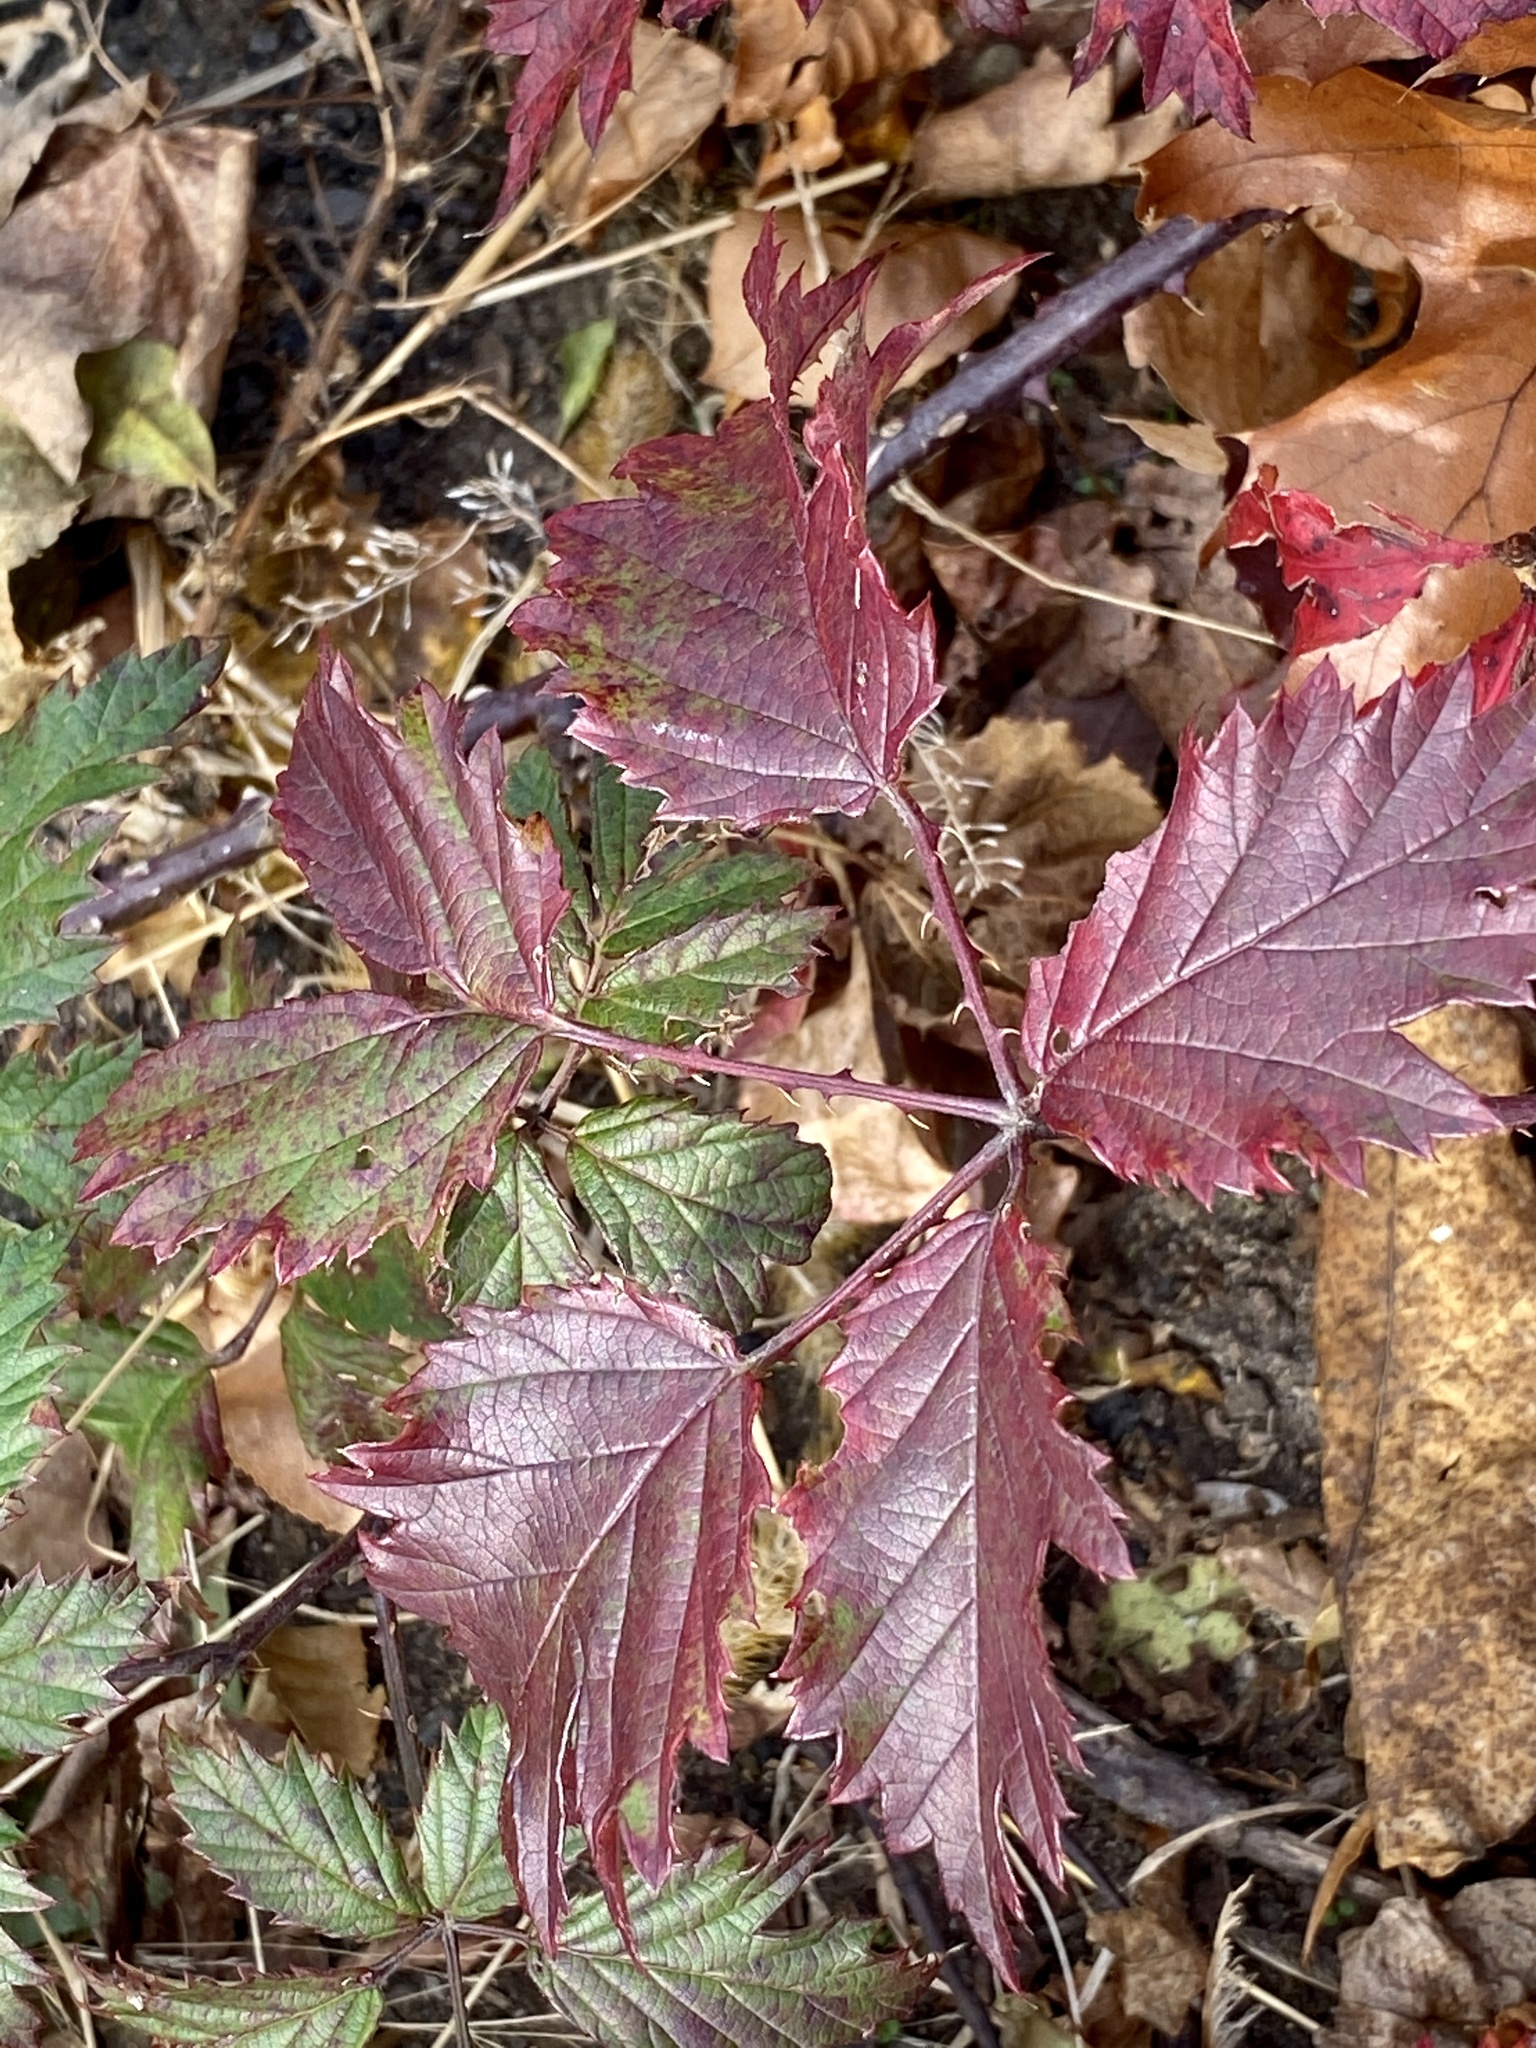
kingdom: Plantae
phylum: Tracheophyta
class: Magnoliopsida
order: Rosales
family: Rosaceae
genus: Rubus
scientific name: Rubus laciniatus
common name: Evergreen blackberry
